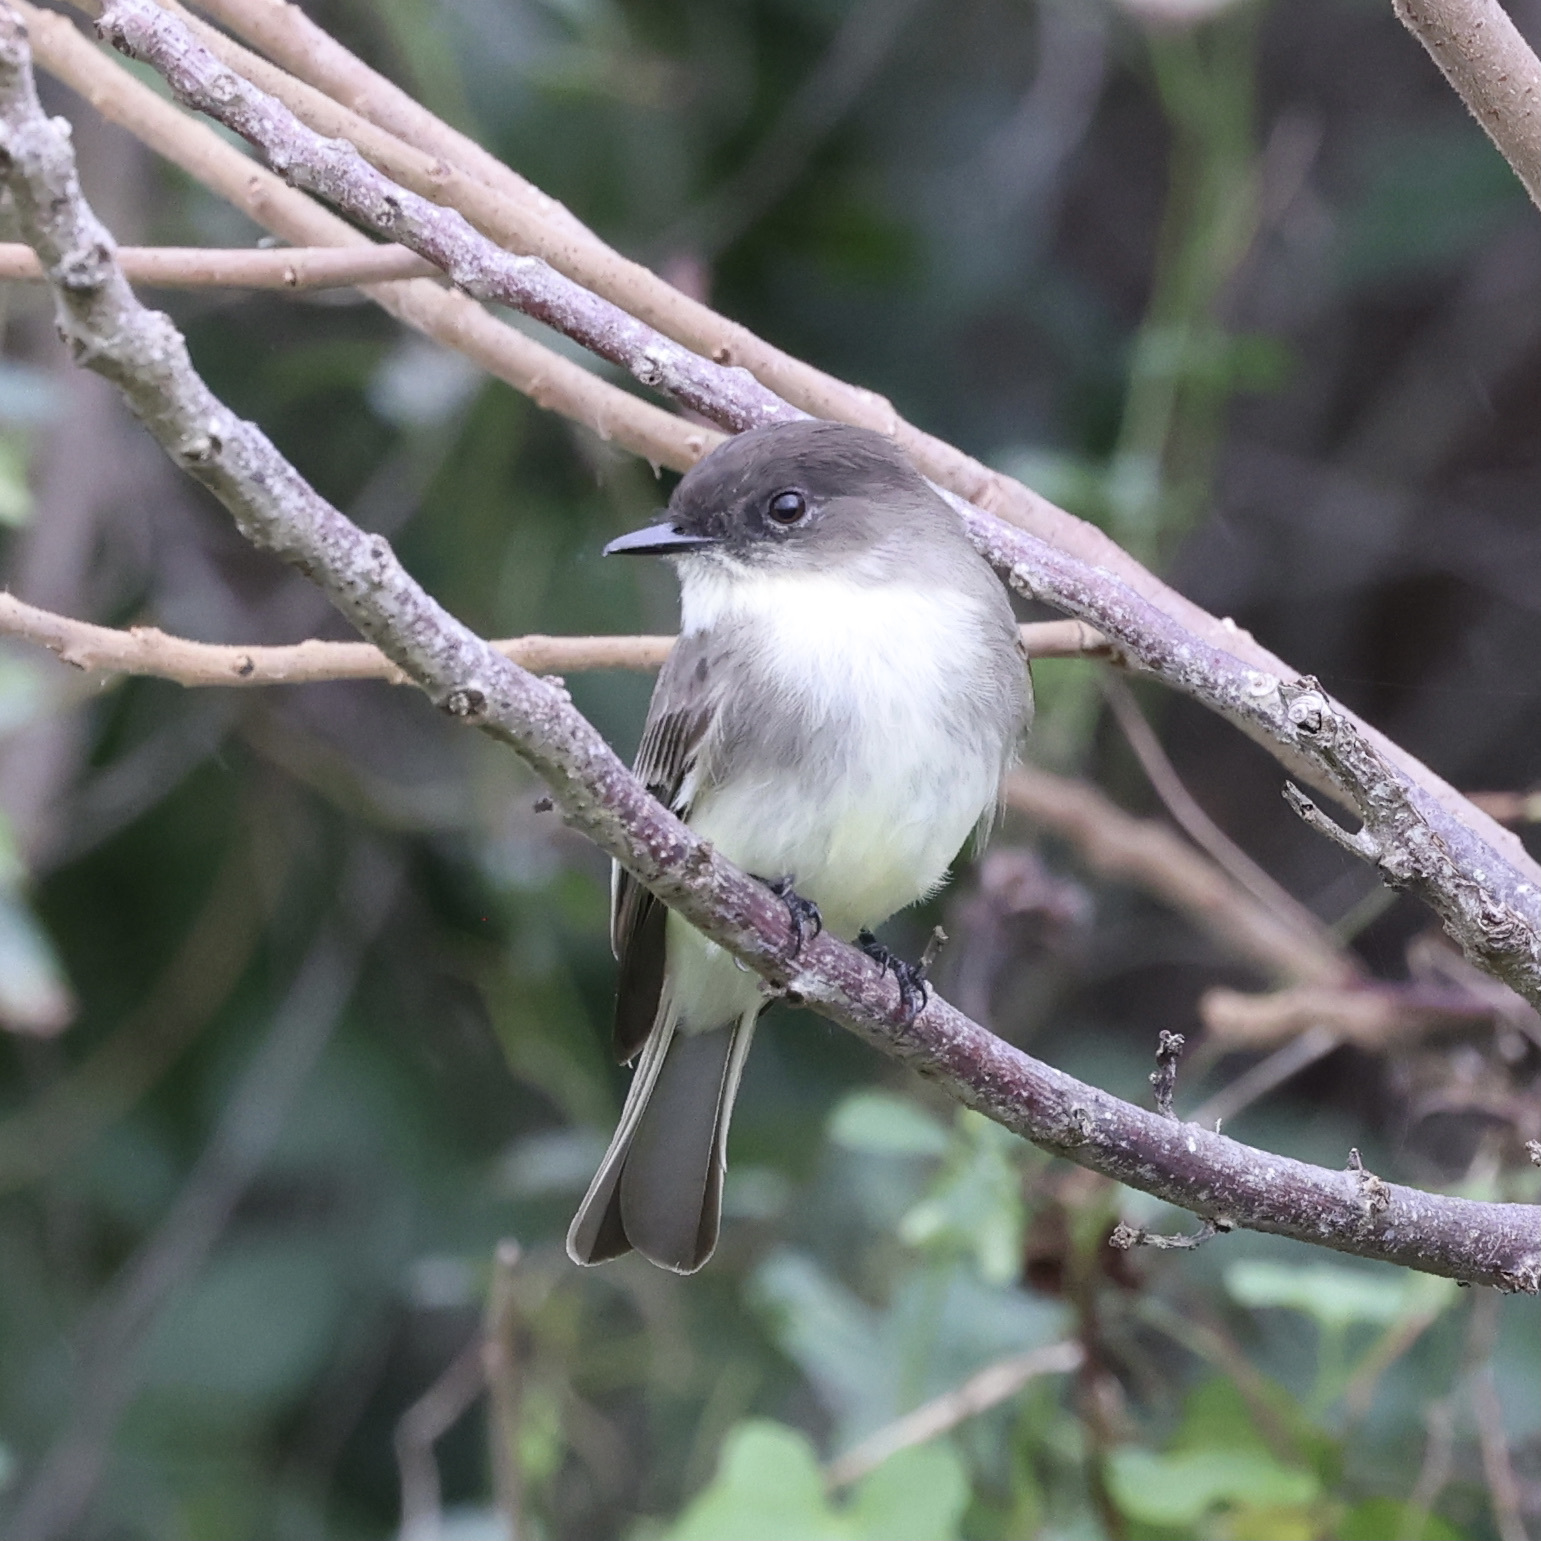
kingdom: Animalia
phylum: Chordata
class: Aves
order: Passeriformes
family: Tyrannidae
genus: Sayornis
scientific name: Sayornis phoebe
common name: Eastern phoebe
